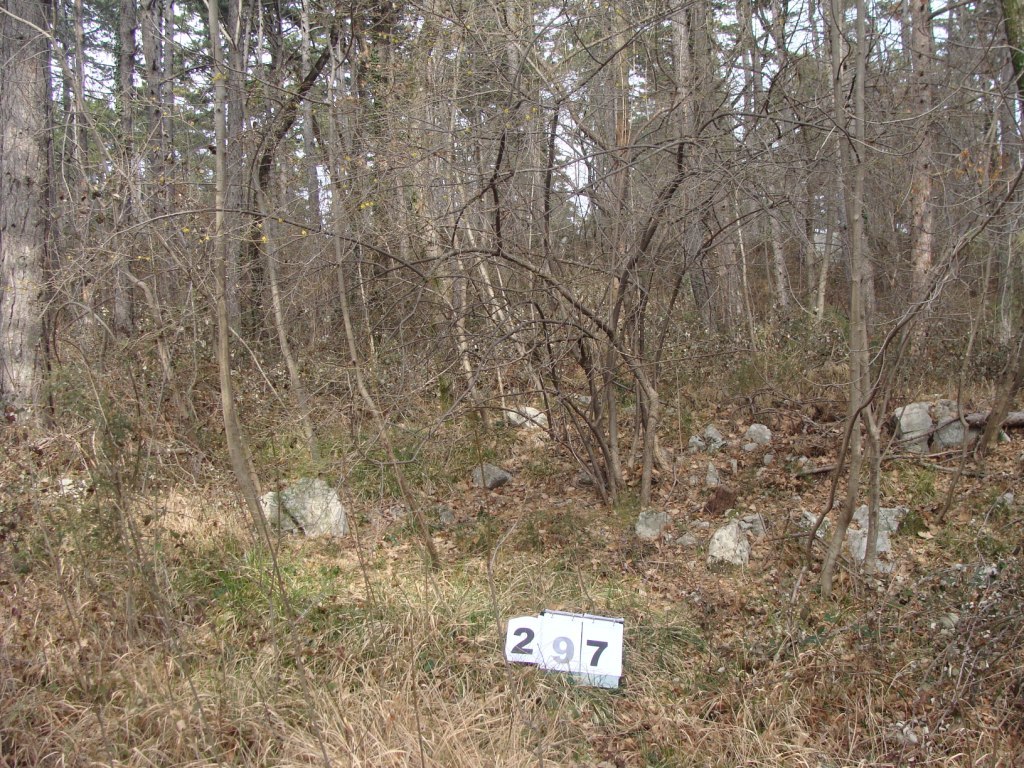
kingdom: Plantae
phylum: Tracheophyta
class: Magnoliopsida
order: Cornales
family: Cornaceae
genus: Cornus
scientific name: Cornus mas
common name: Cornelian-cherry
